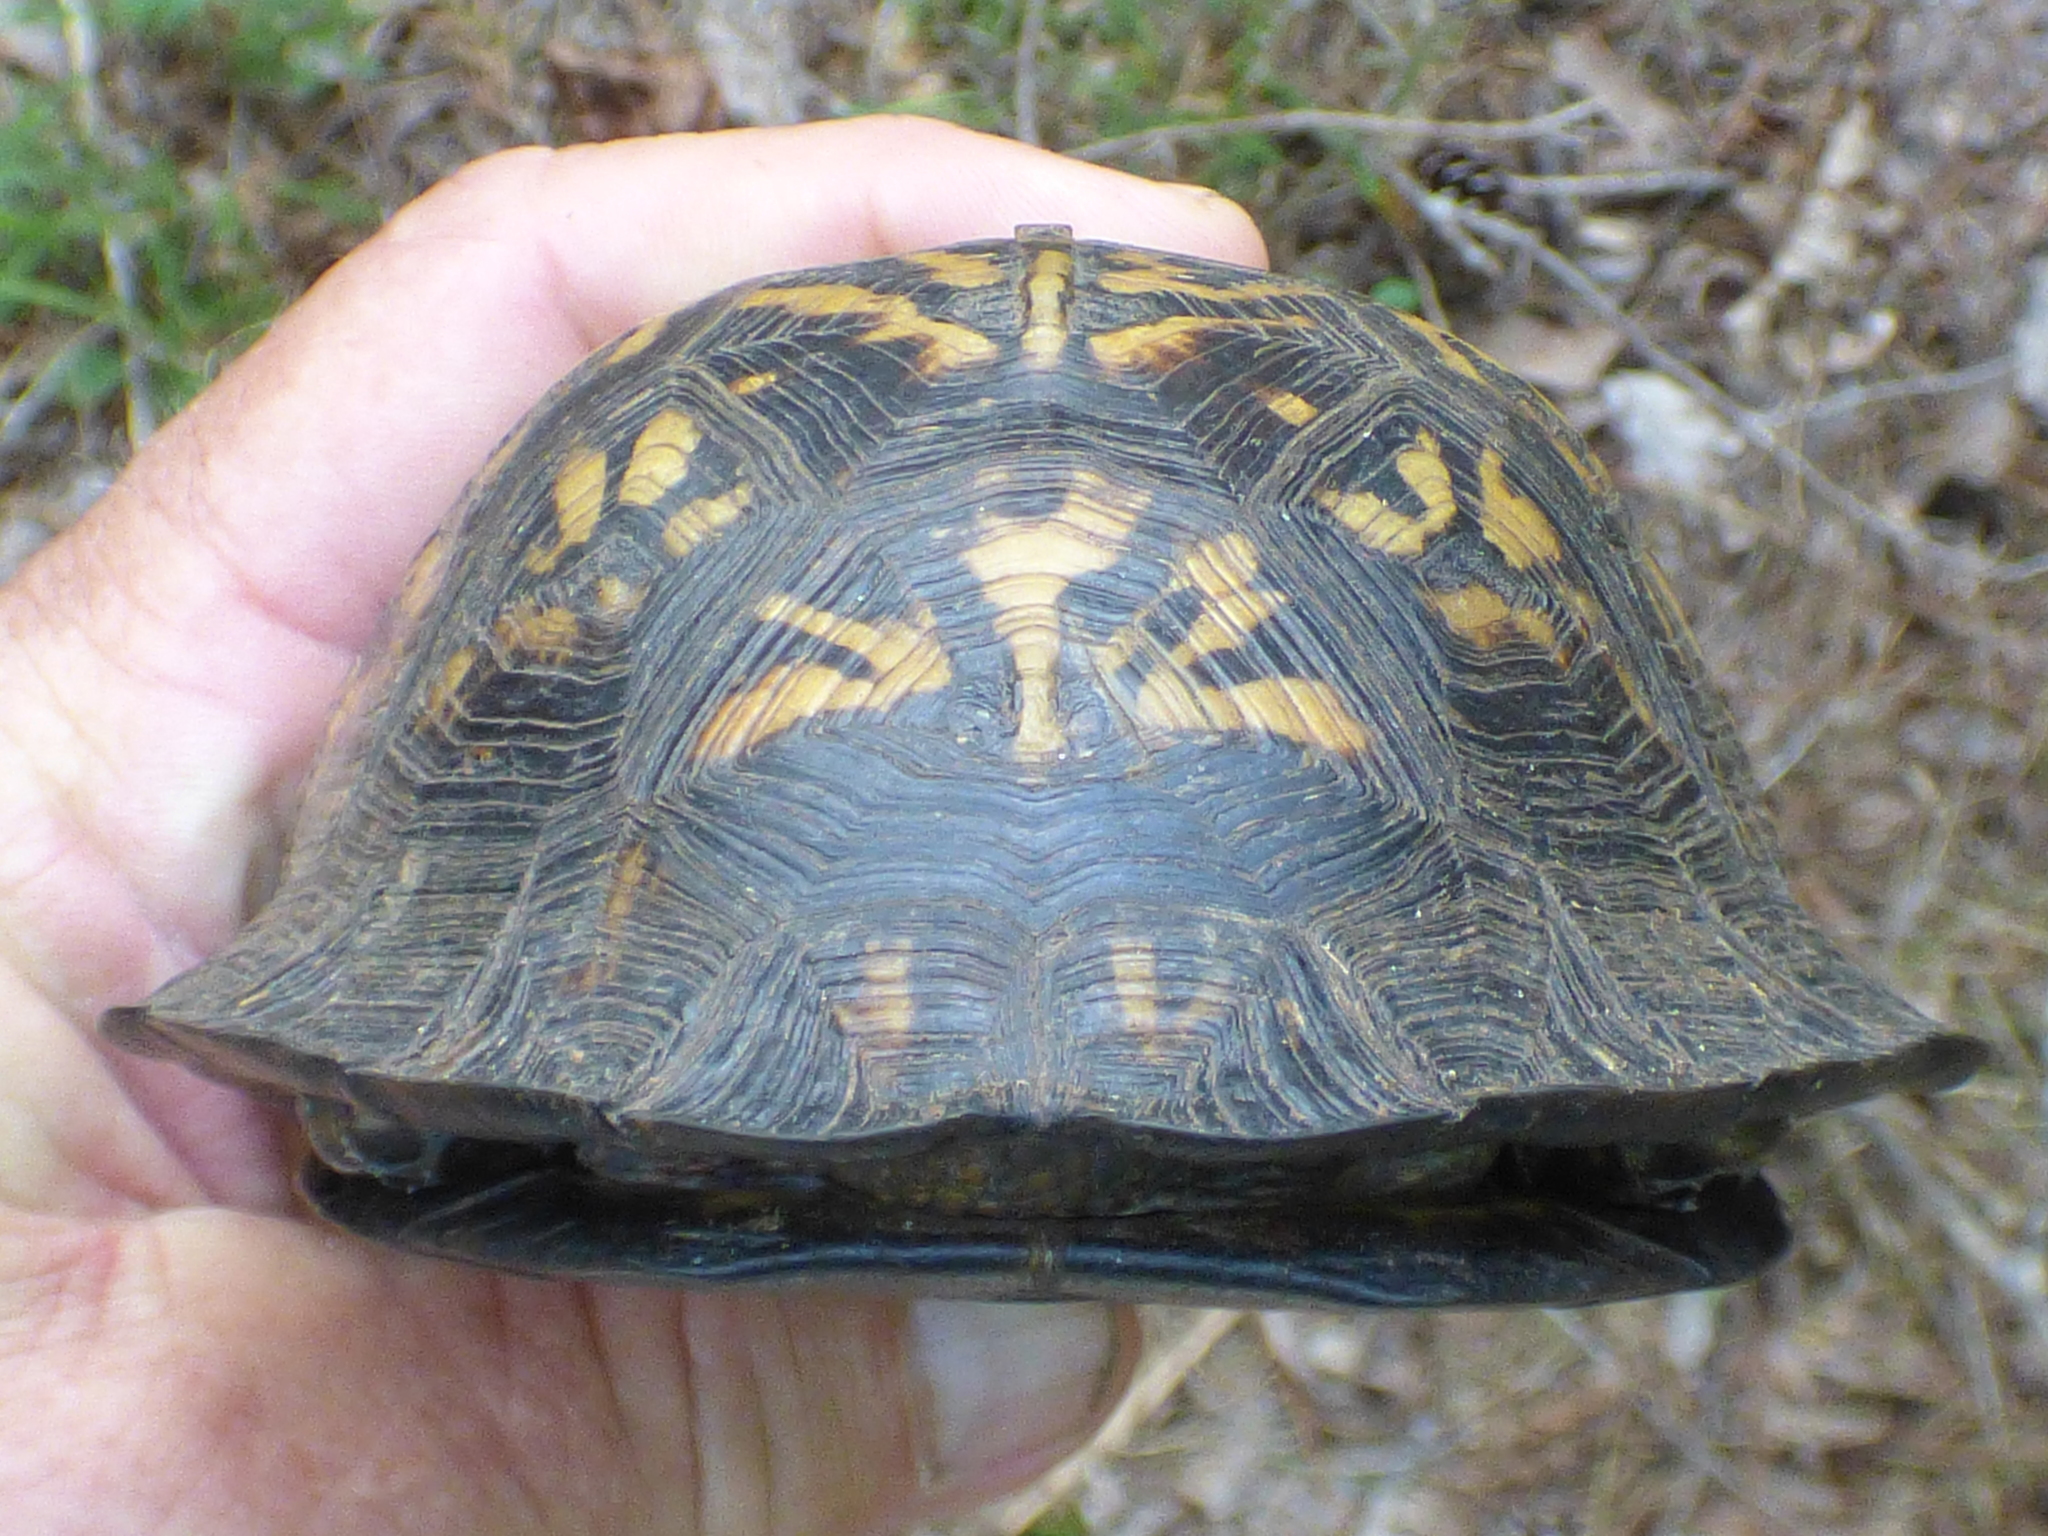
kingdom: Animalia
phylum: Chordata
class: Testudines
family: Emydidae
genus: Terrapene
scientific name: Terrapene carolina
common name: Common box turtle
